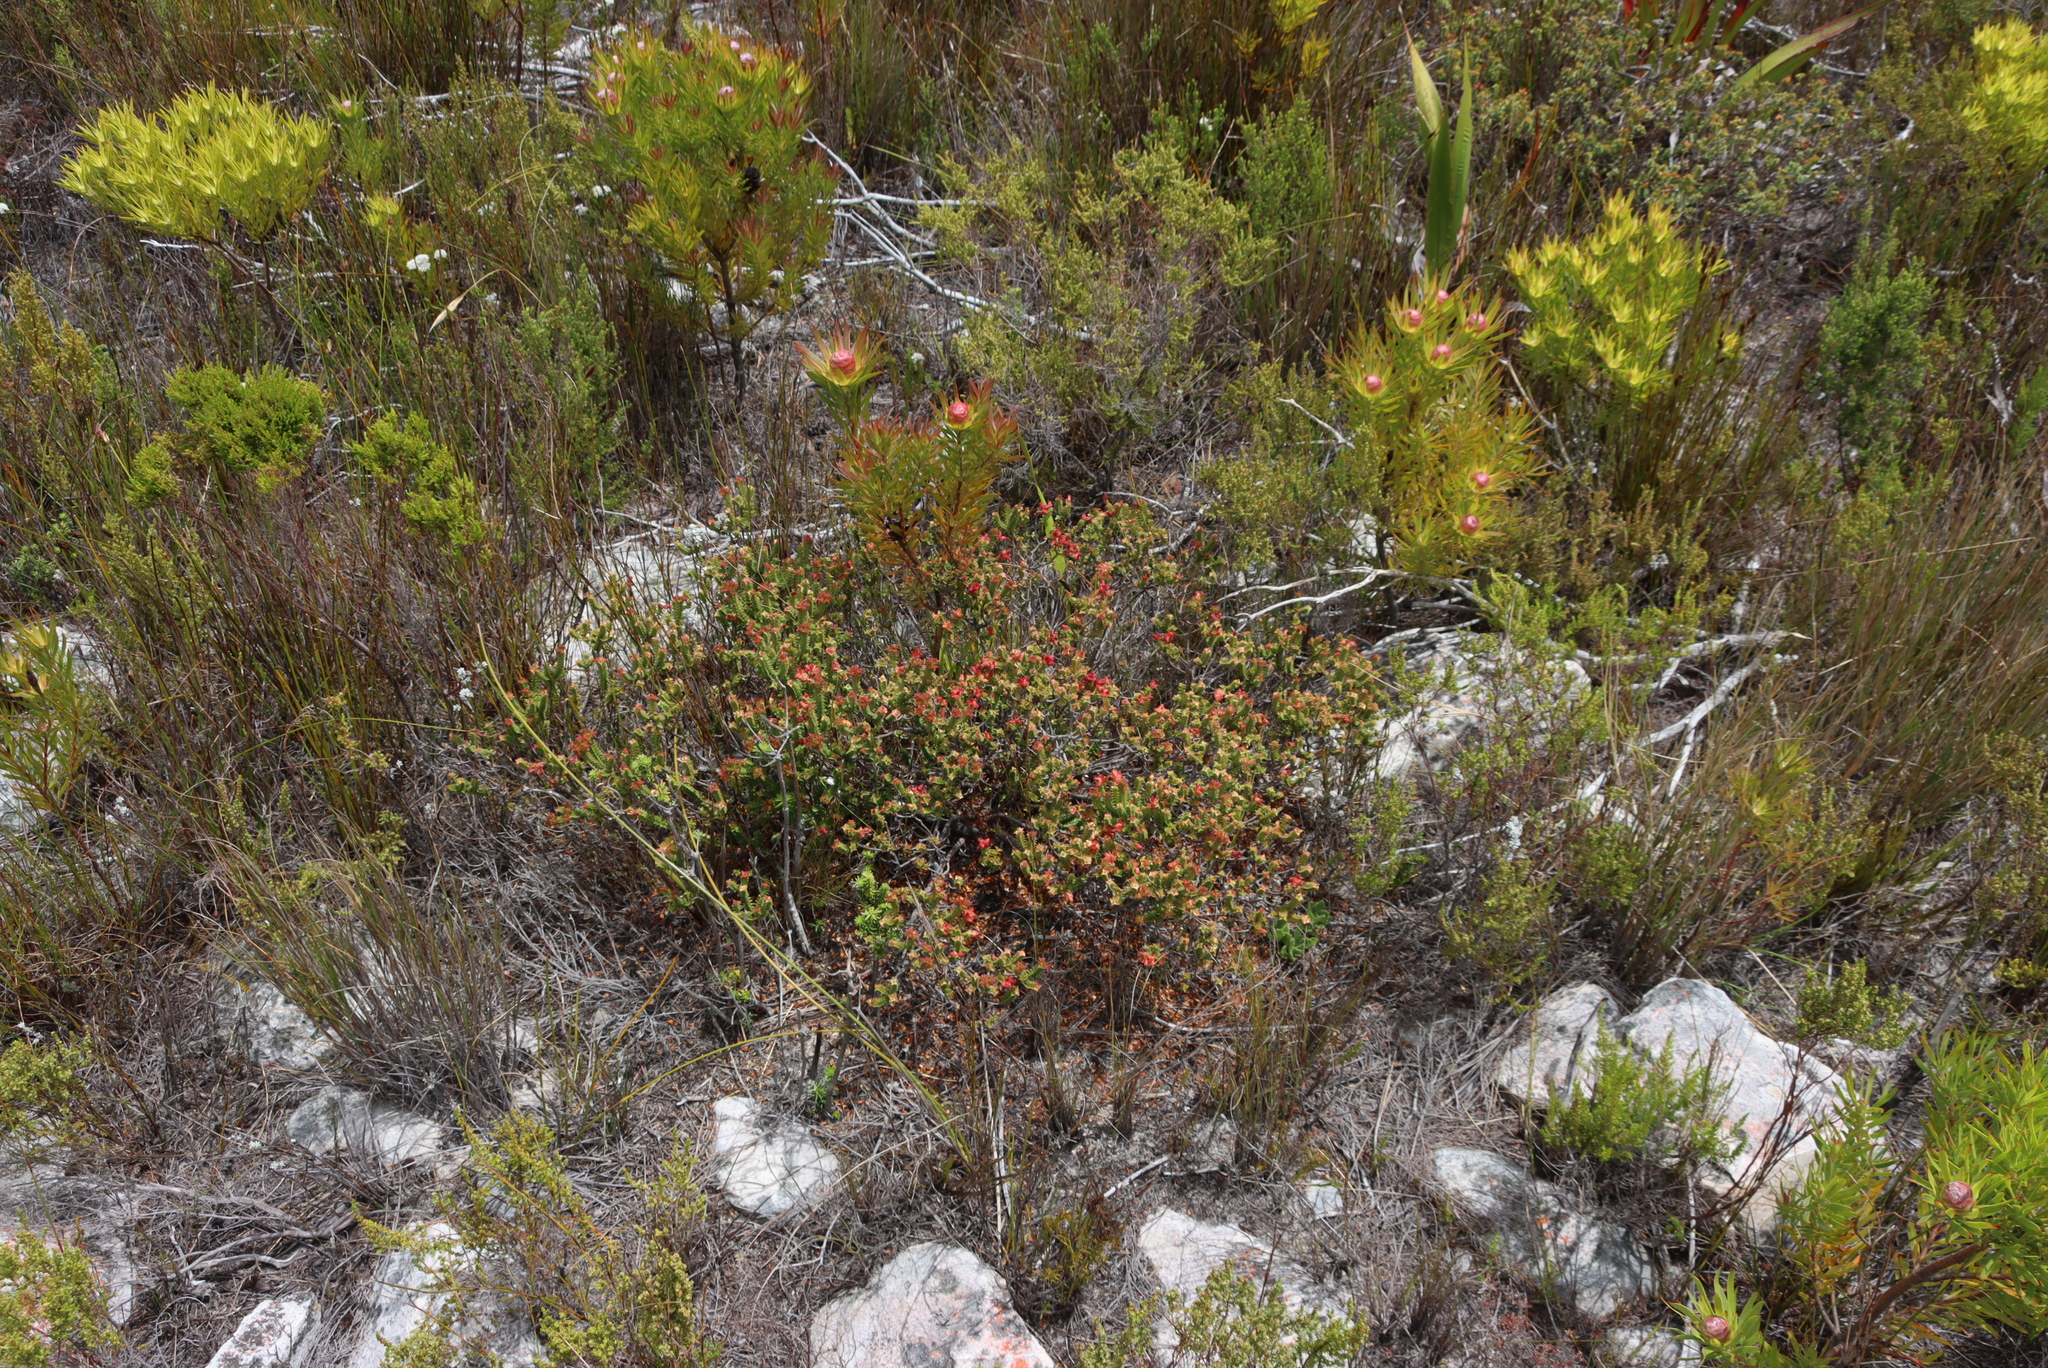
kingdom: Plantae
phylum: Tracheophyta
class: Magnoliopsida
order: Myrtales
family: Penaeaceae
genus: Penaea
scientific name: Penaea mucronata
